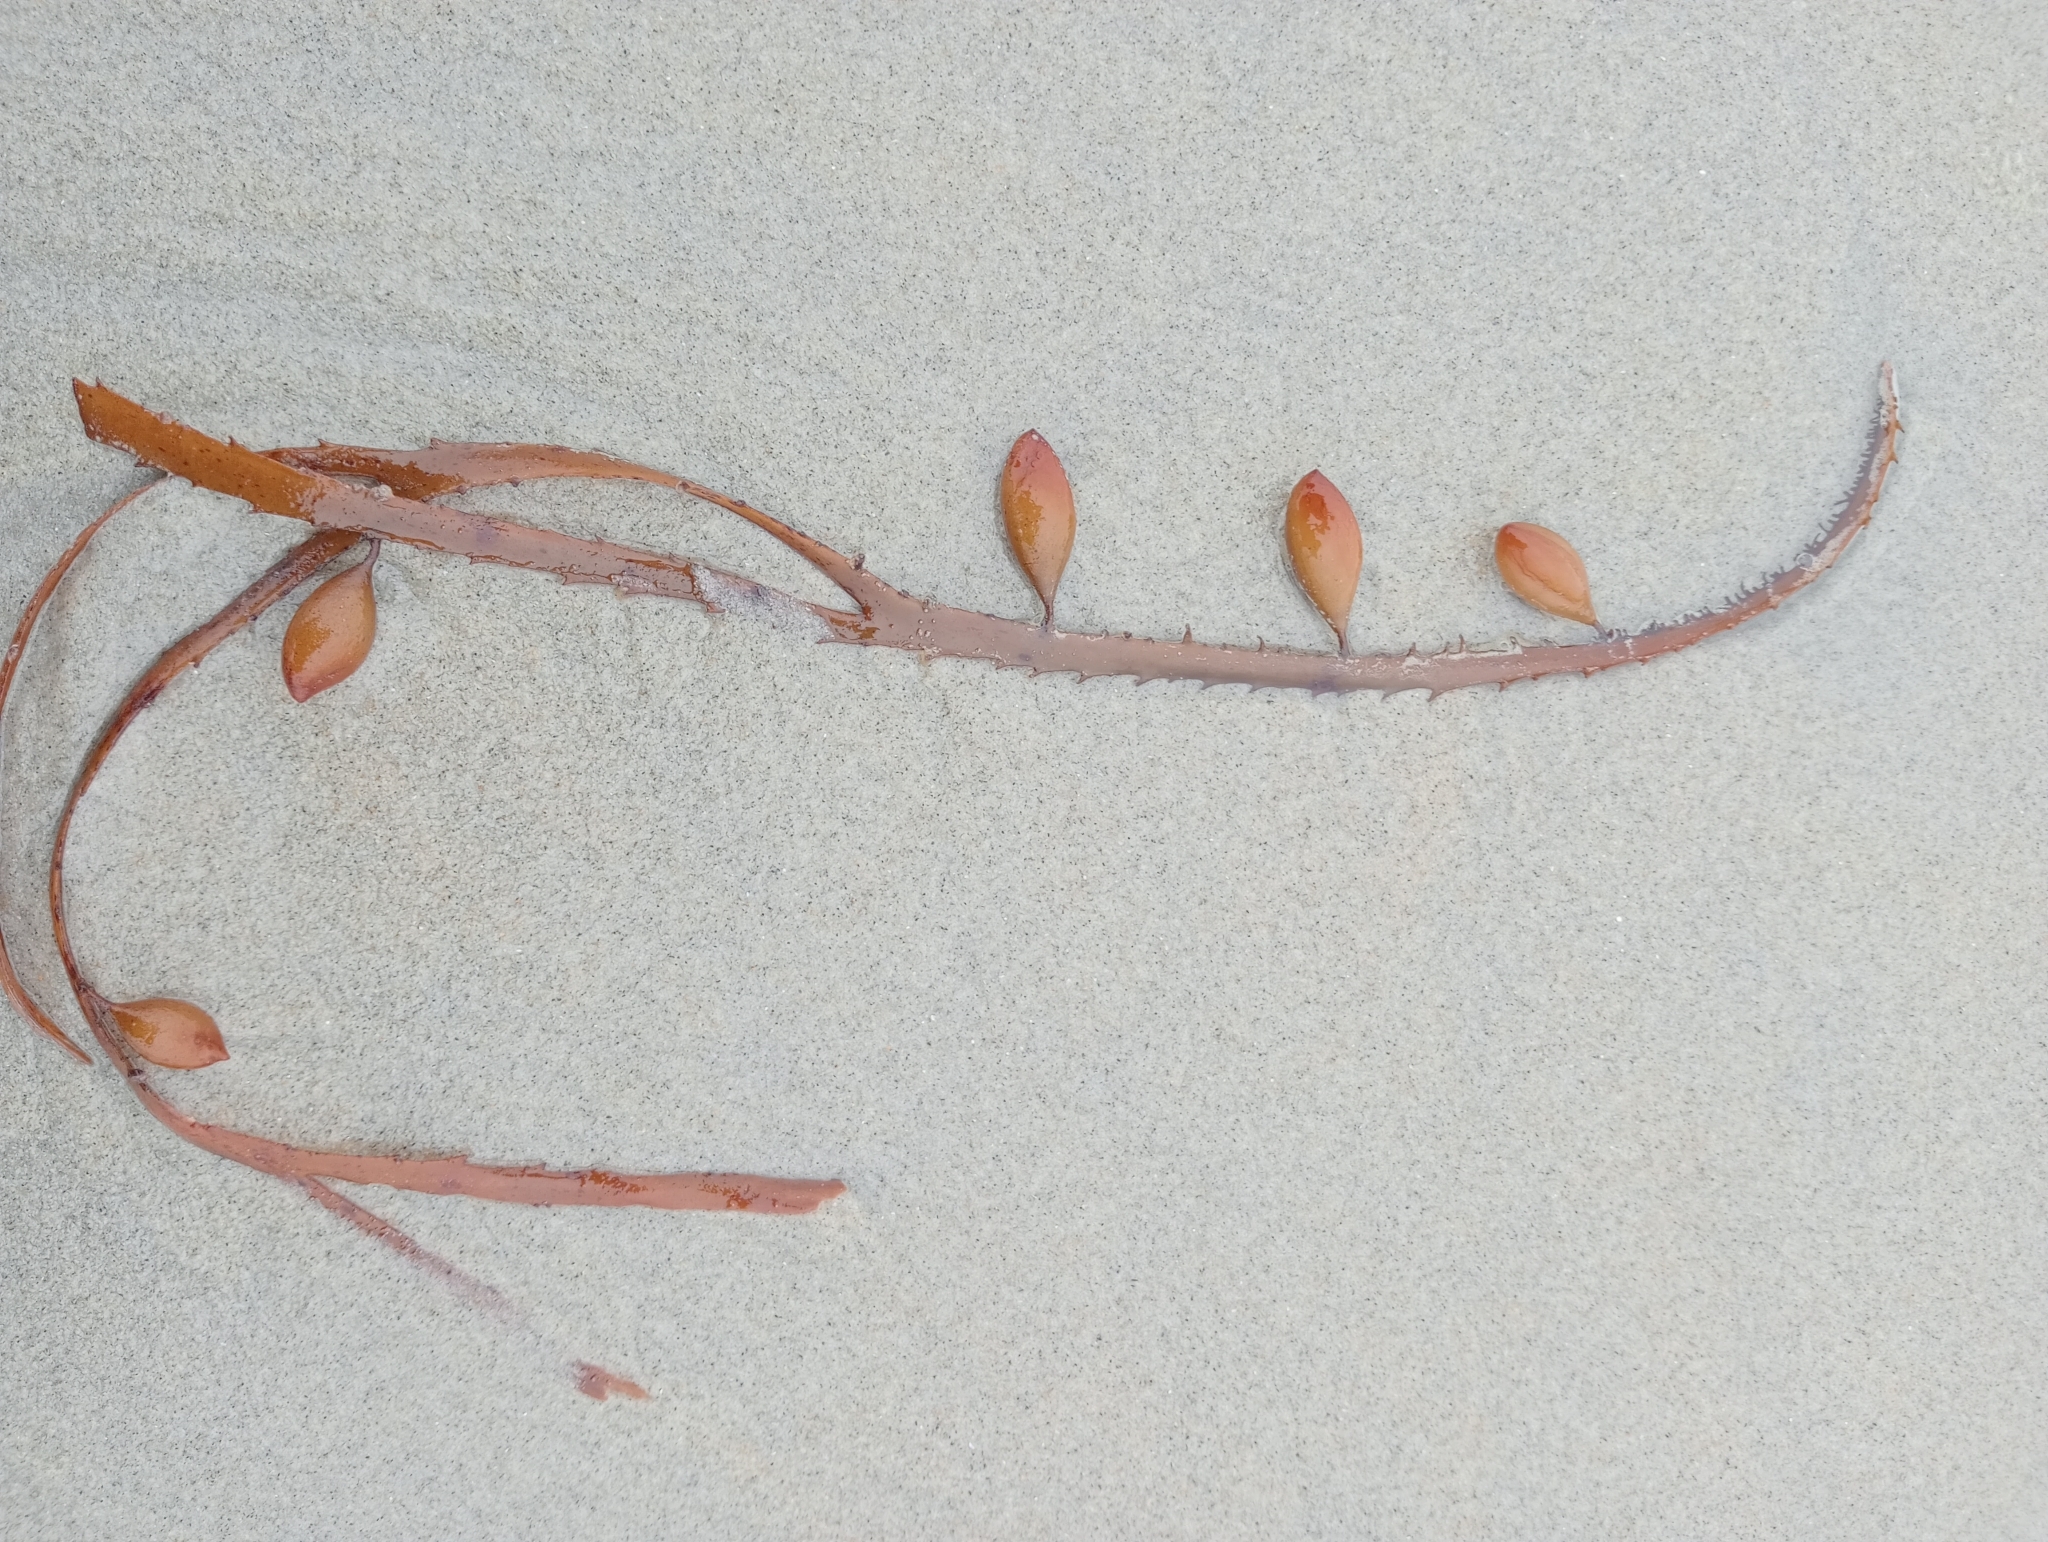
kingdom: Chromista
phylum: Ochrophyta
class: Phaeophyceae
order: Fucales
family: Seirococcaceae
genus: Marginariella
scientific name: Marginariella boryana
